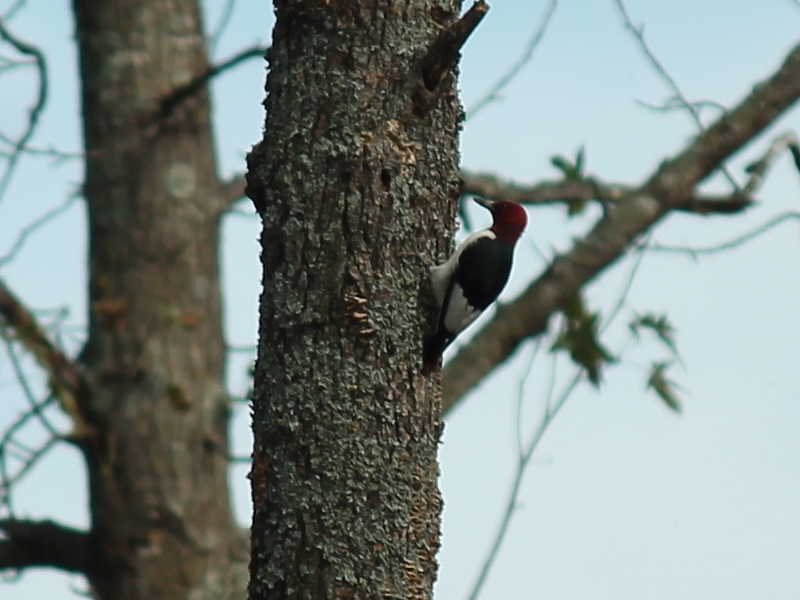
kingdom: Animalia
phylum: Chordata
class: Aves
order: Piciformes
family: Picidae
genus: Melanerpes
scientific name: Melanerpes erythrocephalus
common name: Red-headed woodpecker
